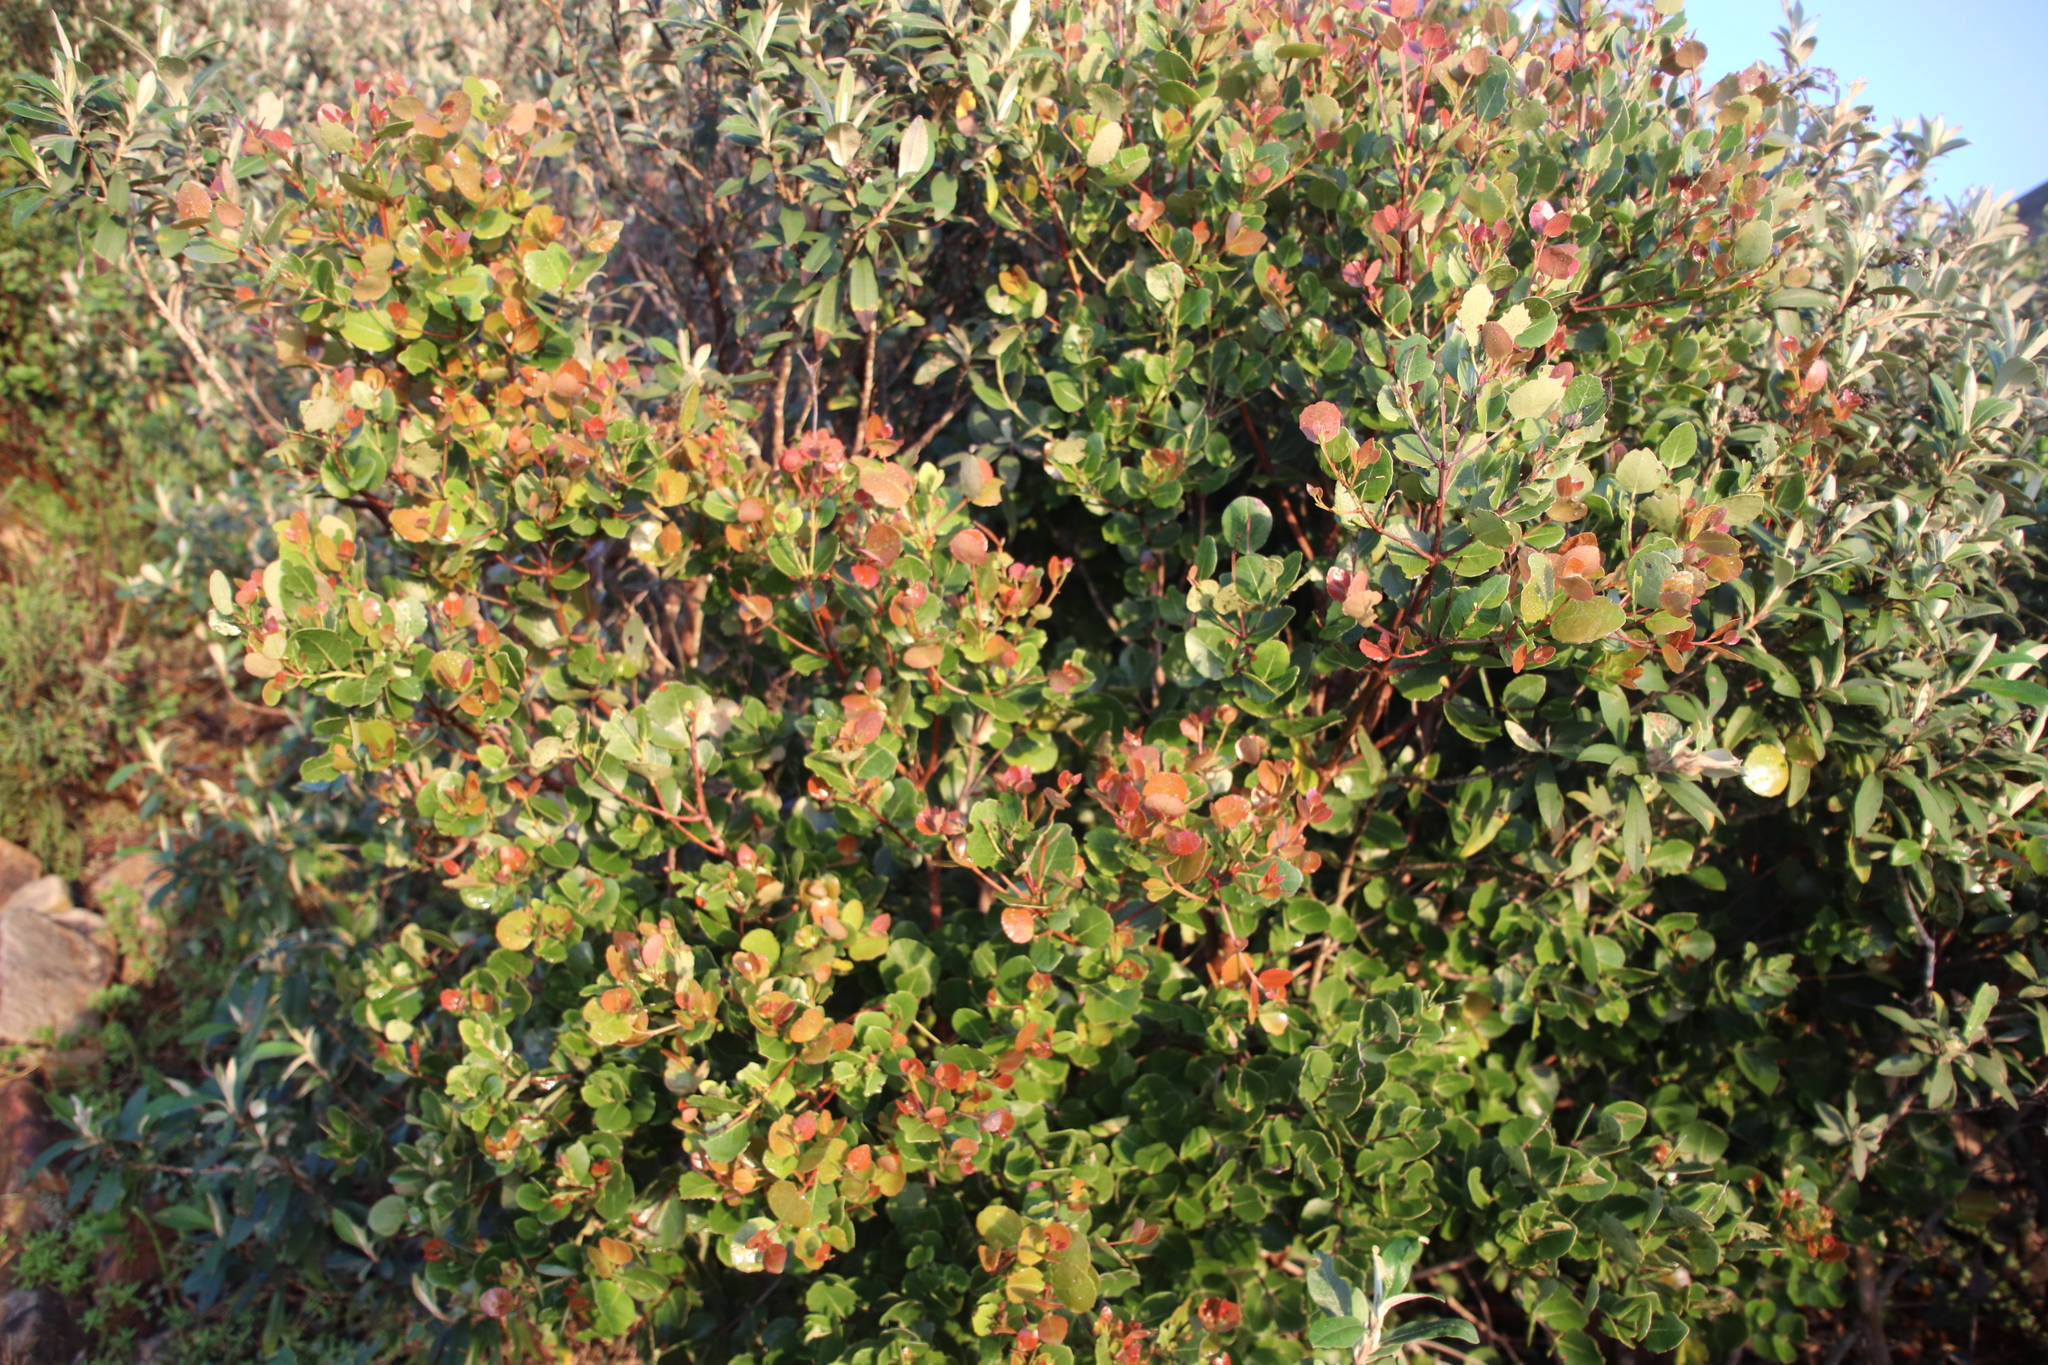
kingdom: Plantae
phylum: Tracheophyta
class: Magnoliopsida
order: Celastrales
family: Celastraceae
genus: Cassine
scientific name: Cassine peragua
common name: Cape saffron
